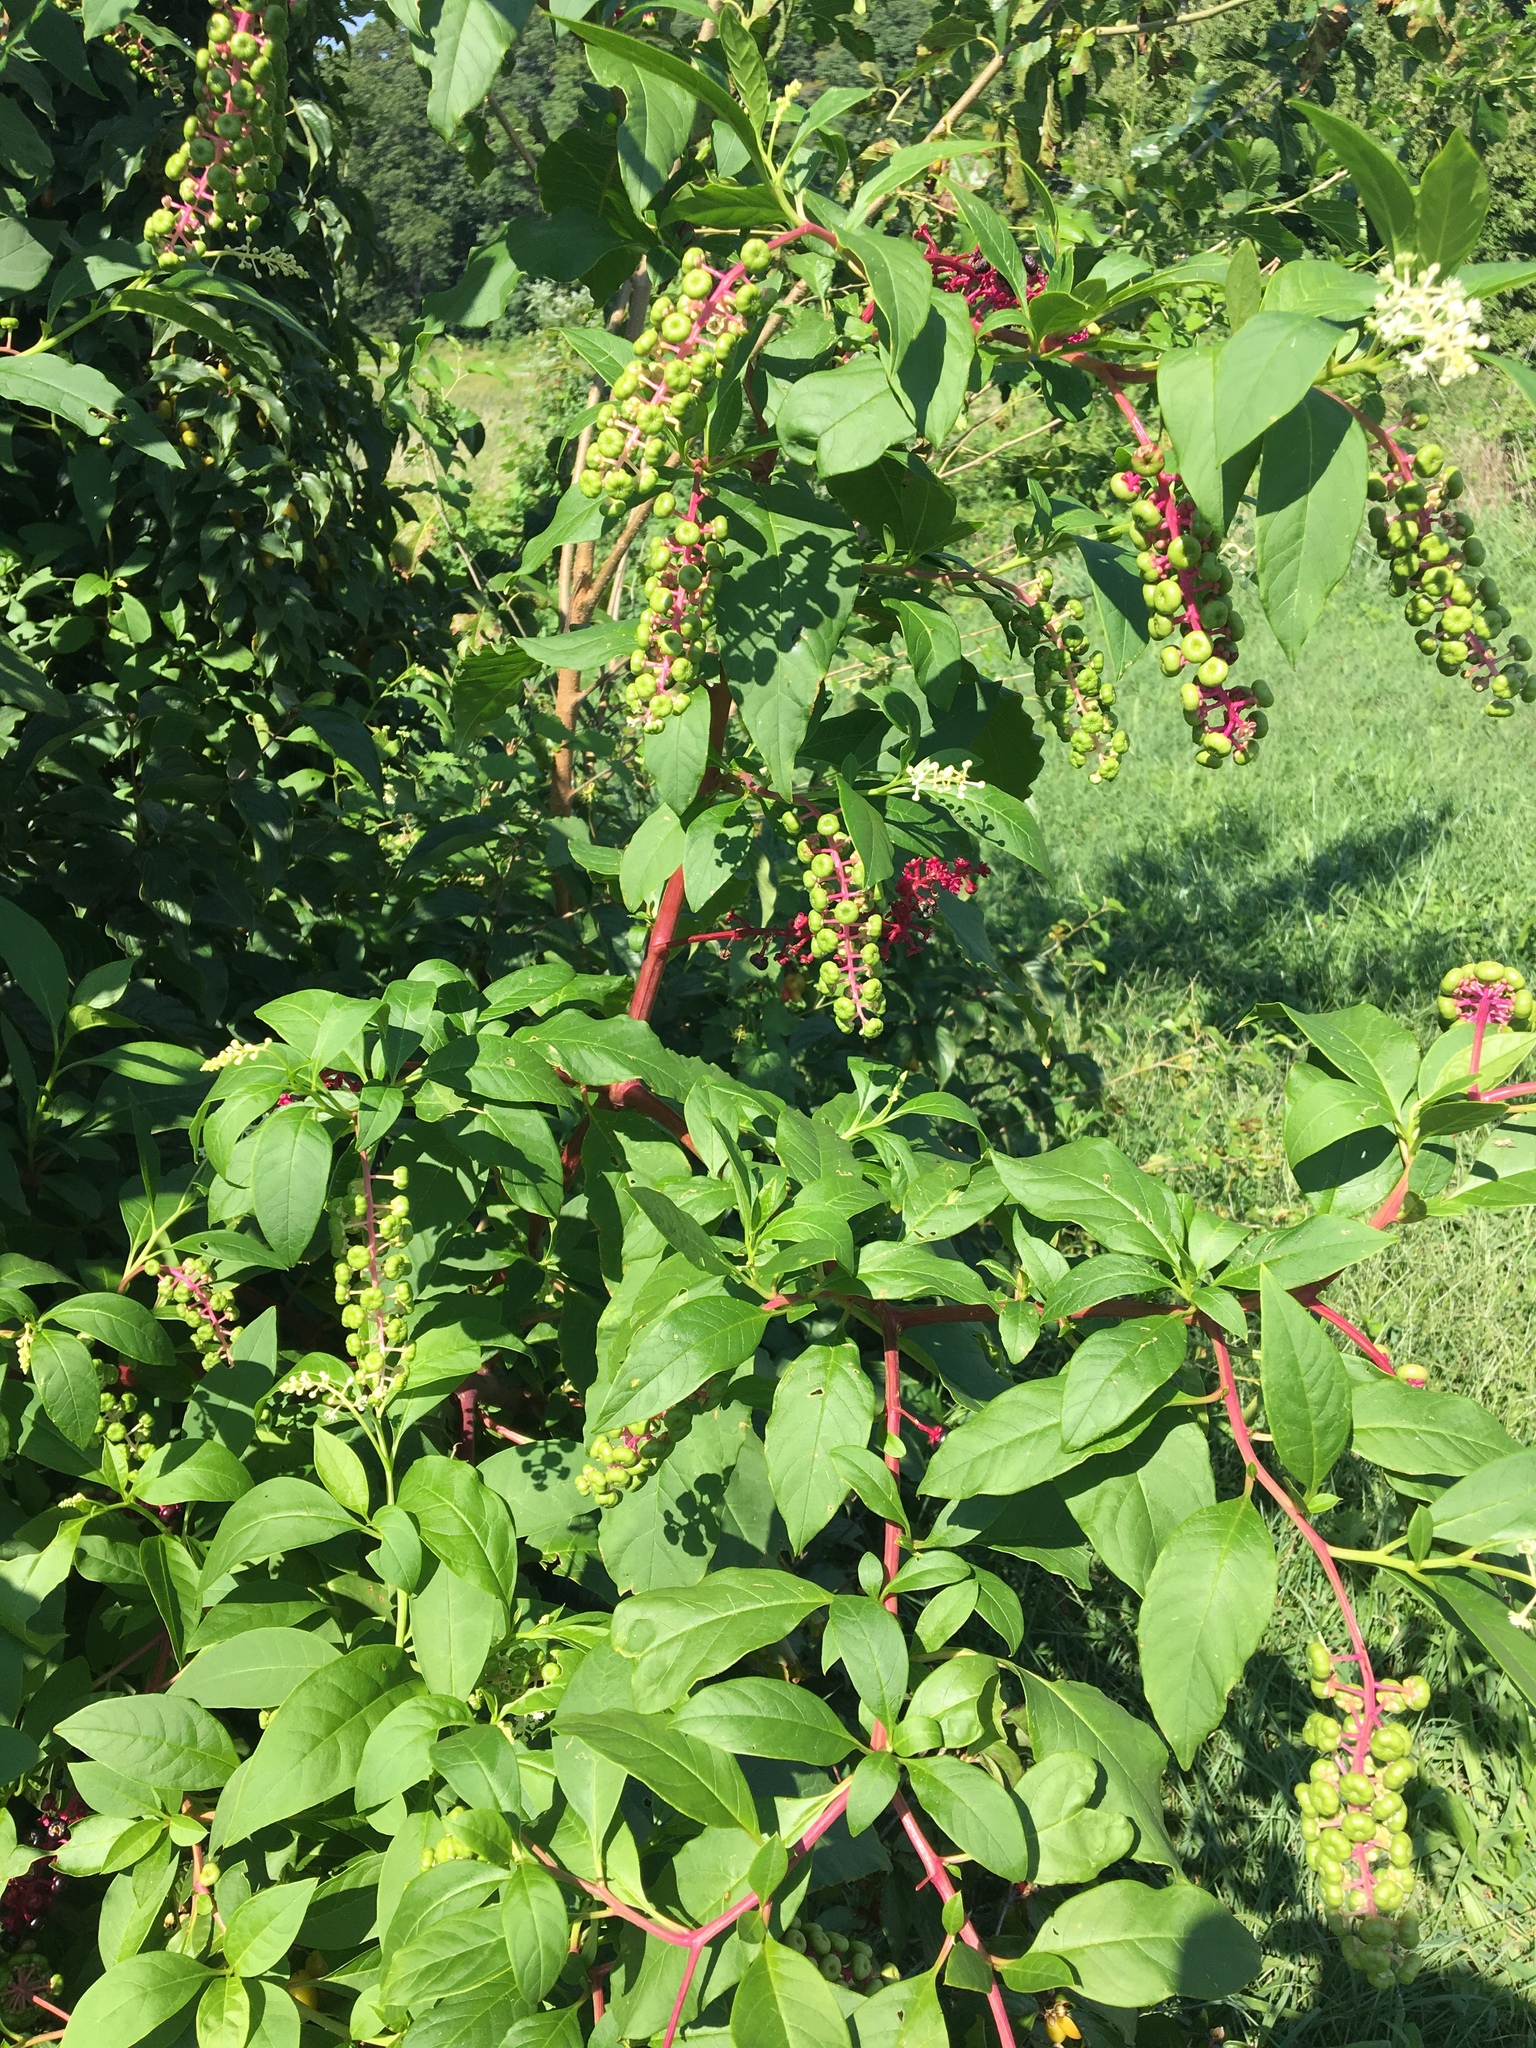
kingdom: Plantae
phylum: Tracheophyta
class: Magnoliopsida
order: Caryophyllales
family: Phytolaccaceae
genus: Phytolacca
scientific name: Phytolacca americana
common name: American pokeweed
